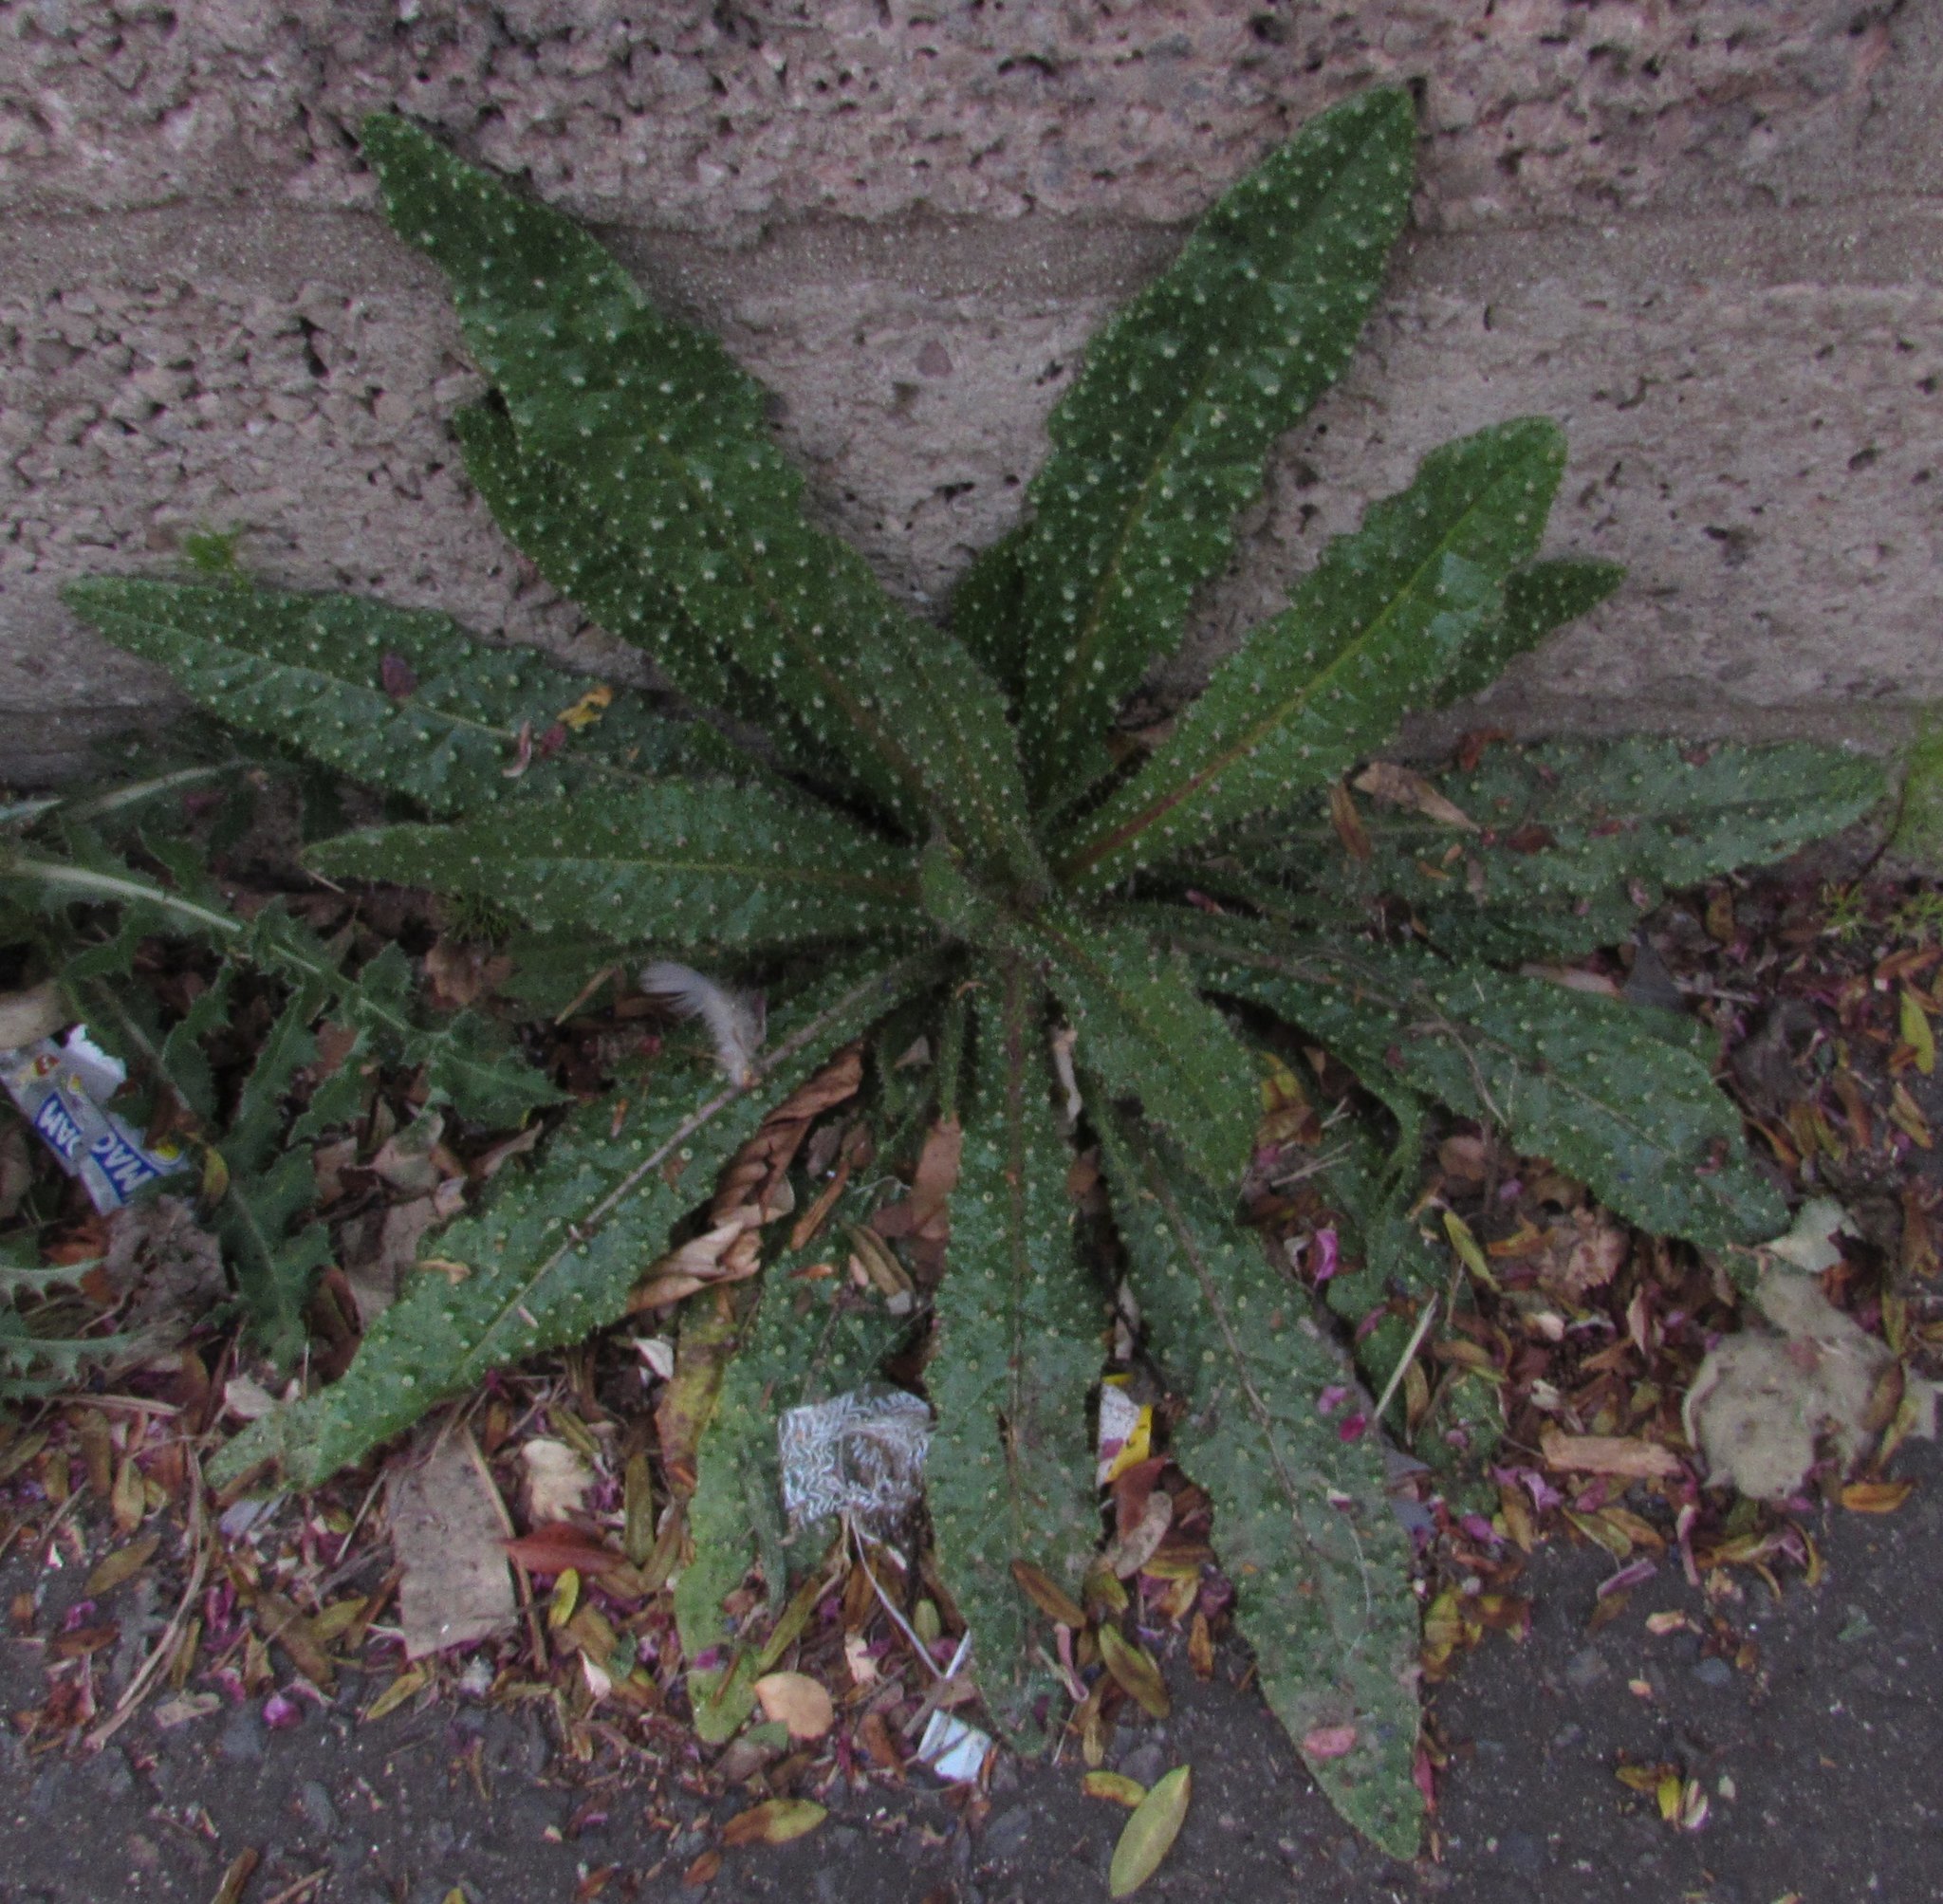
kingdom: Plantae
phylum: Tracheophyta
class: Magnoliopsida
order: Asterales
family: Asteraceae
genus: Helminthotheca
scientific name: Helminthotheca echioides
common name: Ox-tongue
